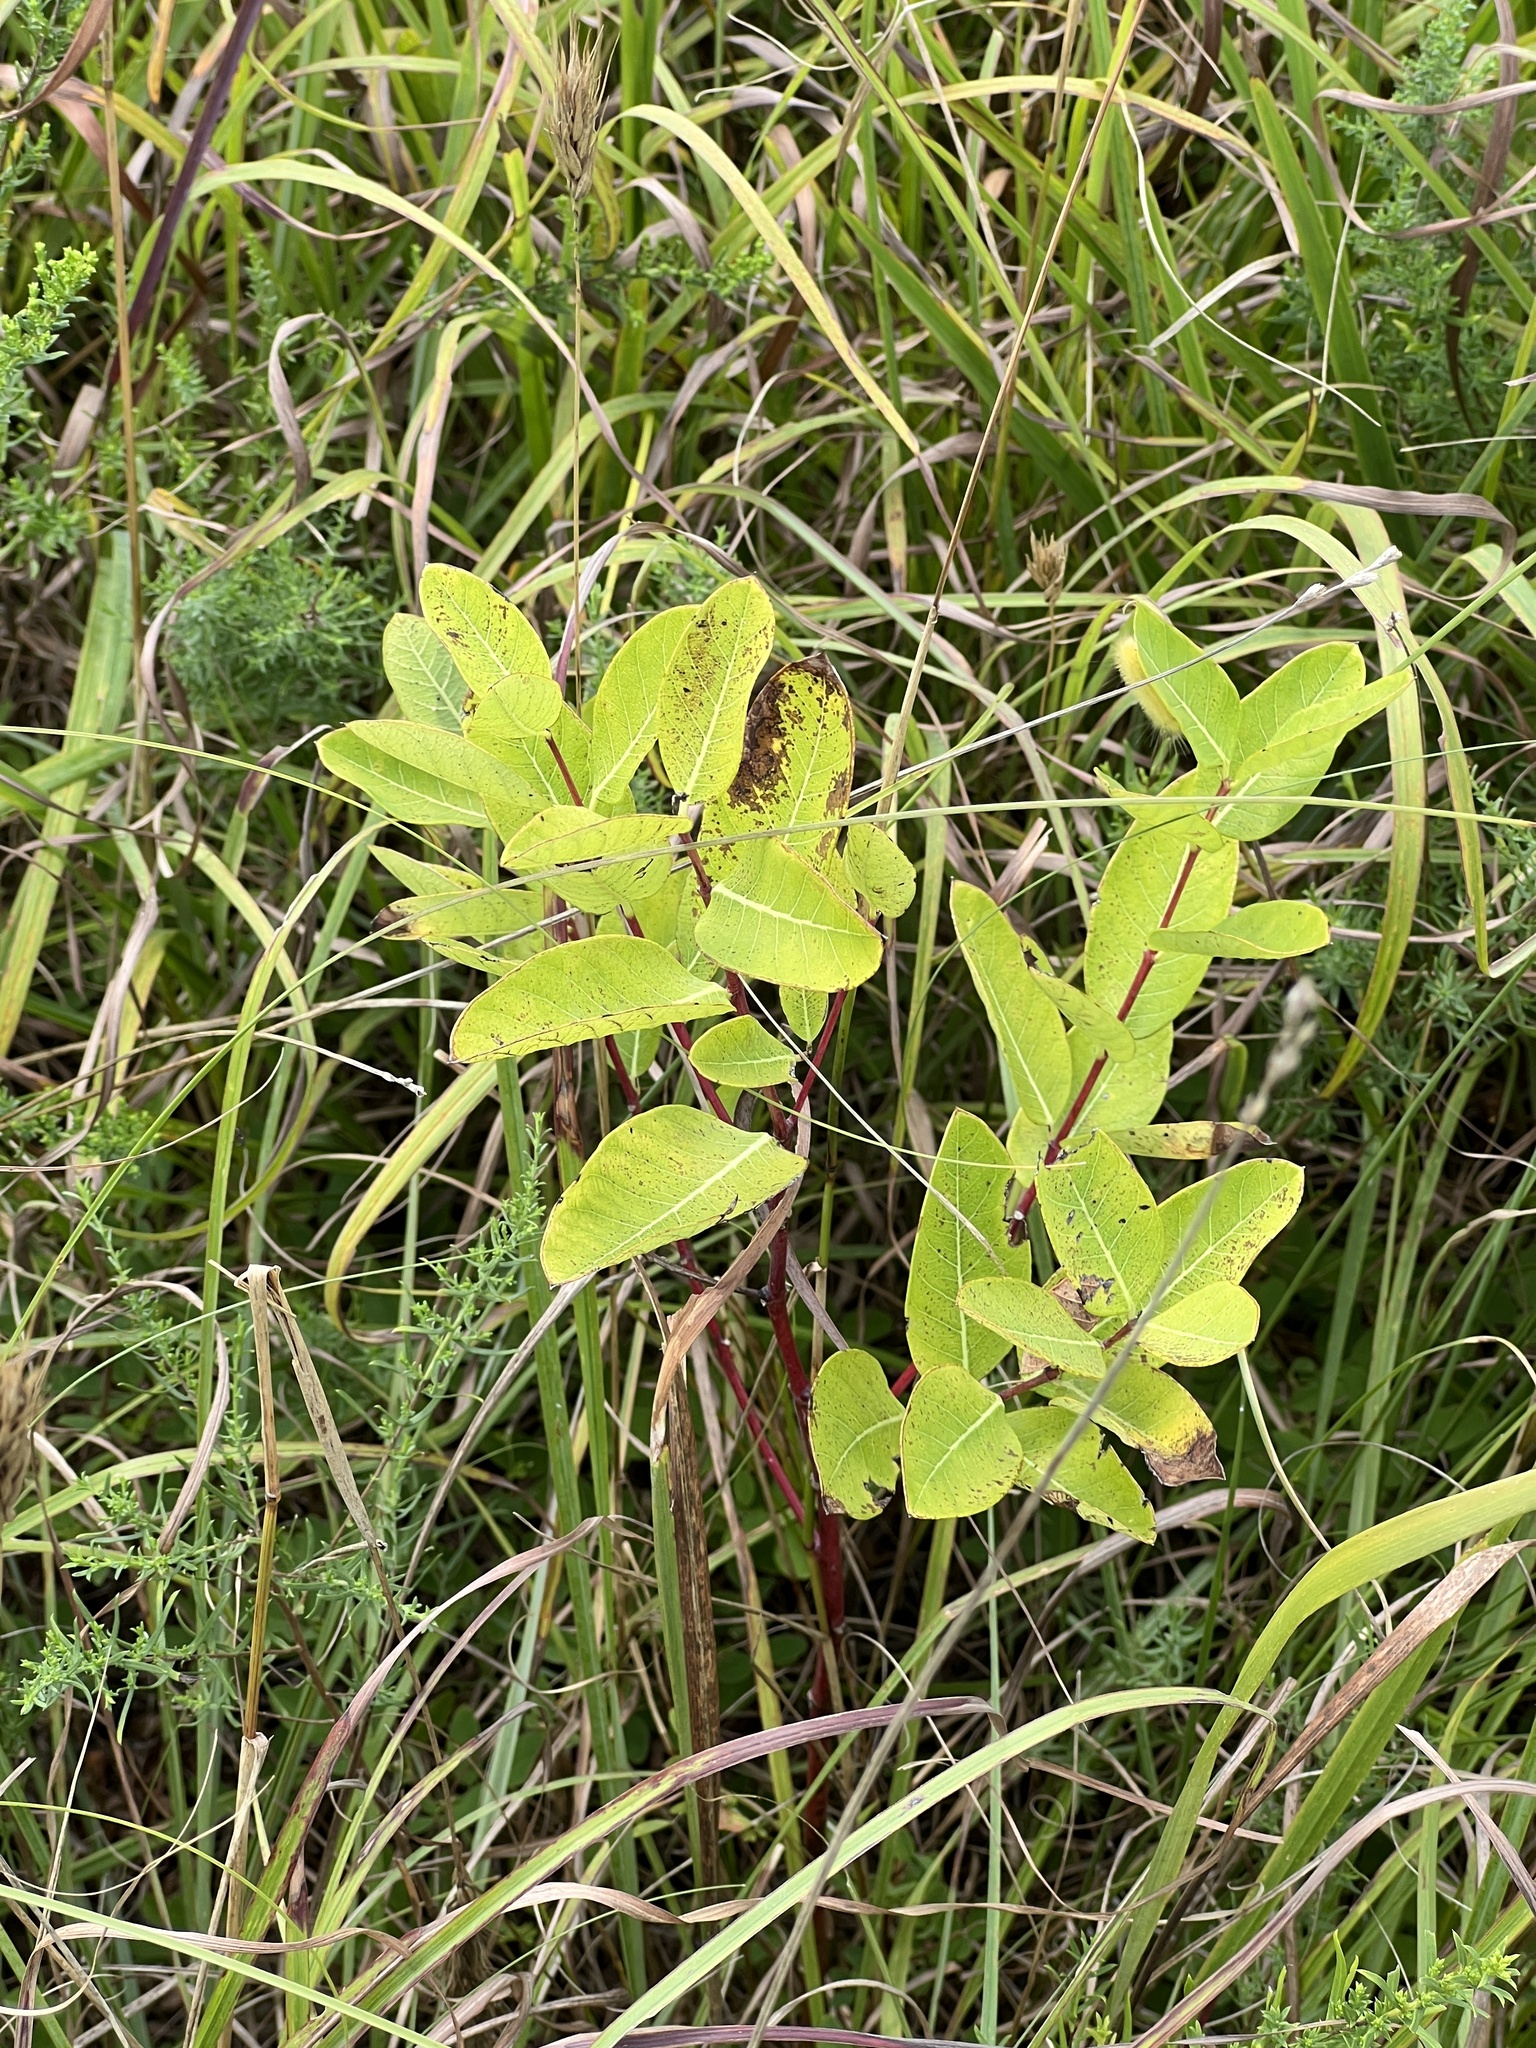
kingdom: Plantae
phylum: Tracheophyta
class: Magnoliopsida
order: Gentianales
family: Apocynaceae
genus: Apocynum
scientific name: Apocynum cannabinum
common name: Hemp dogbane
